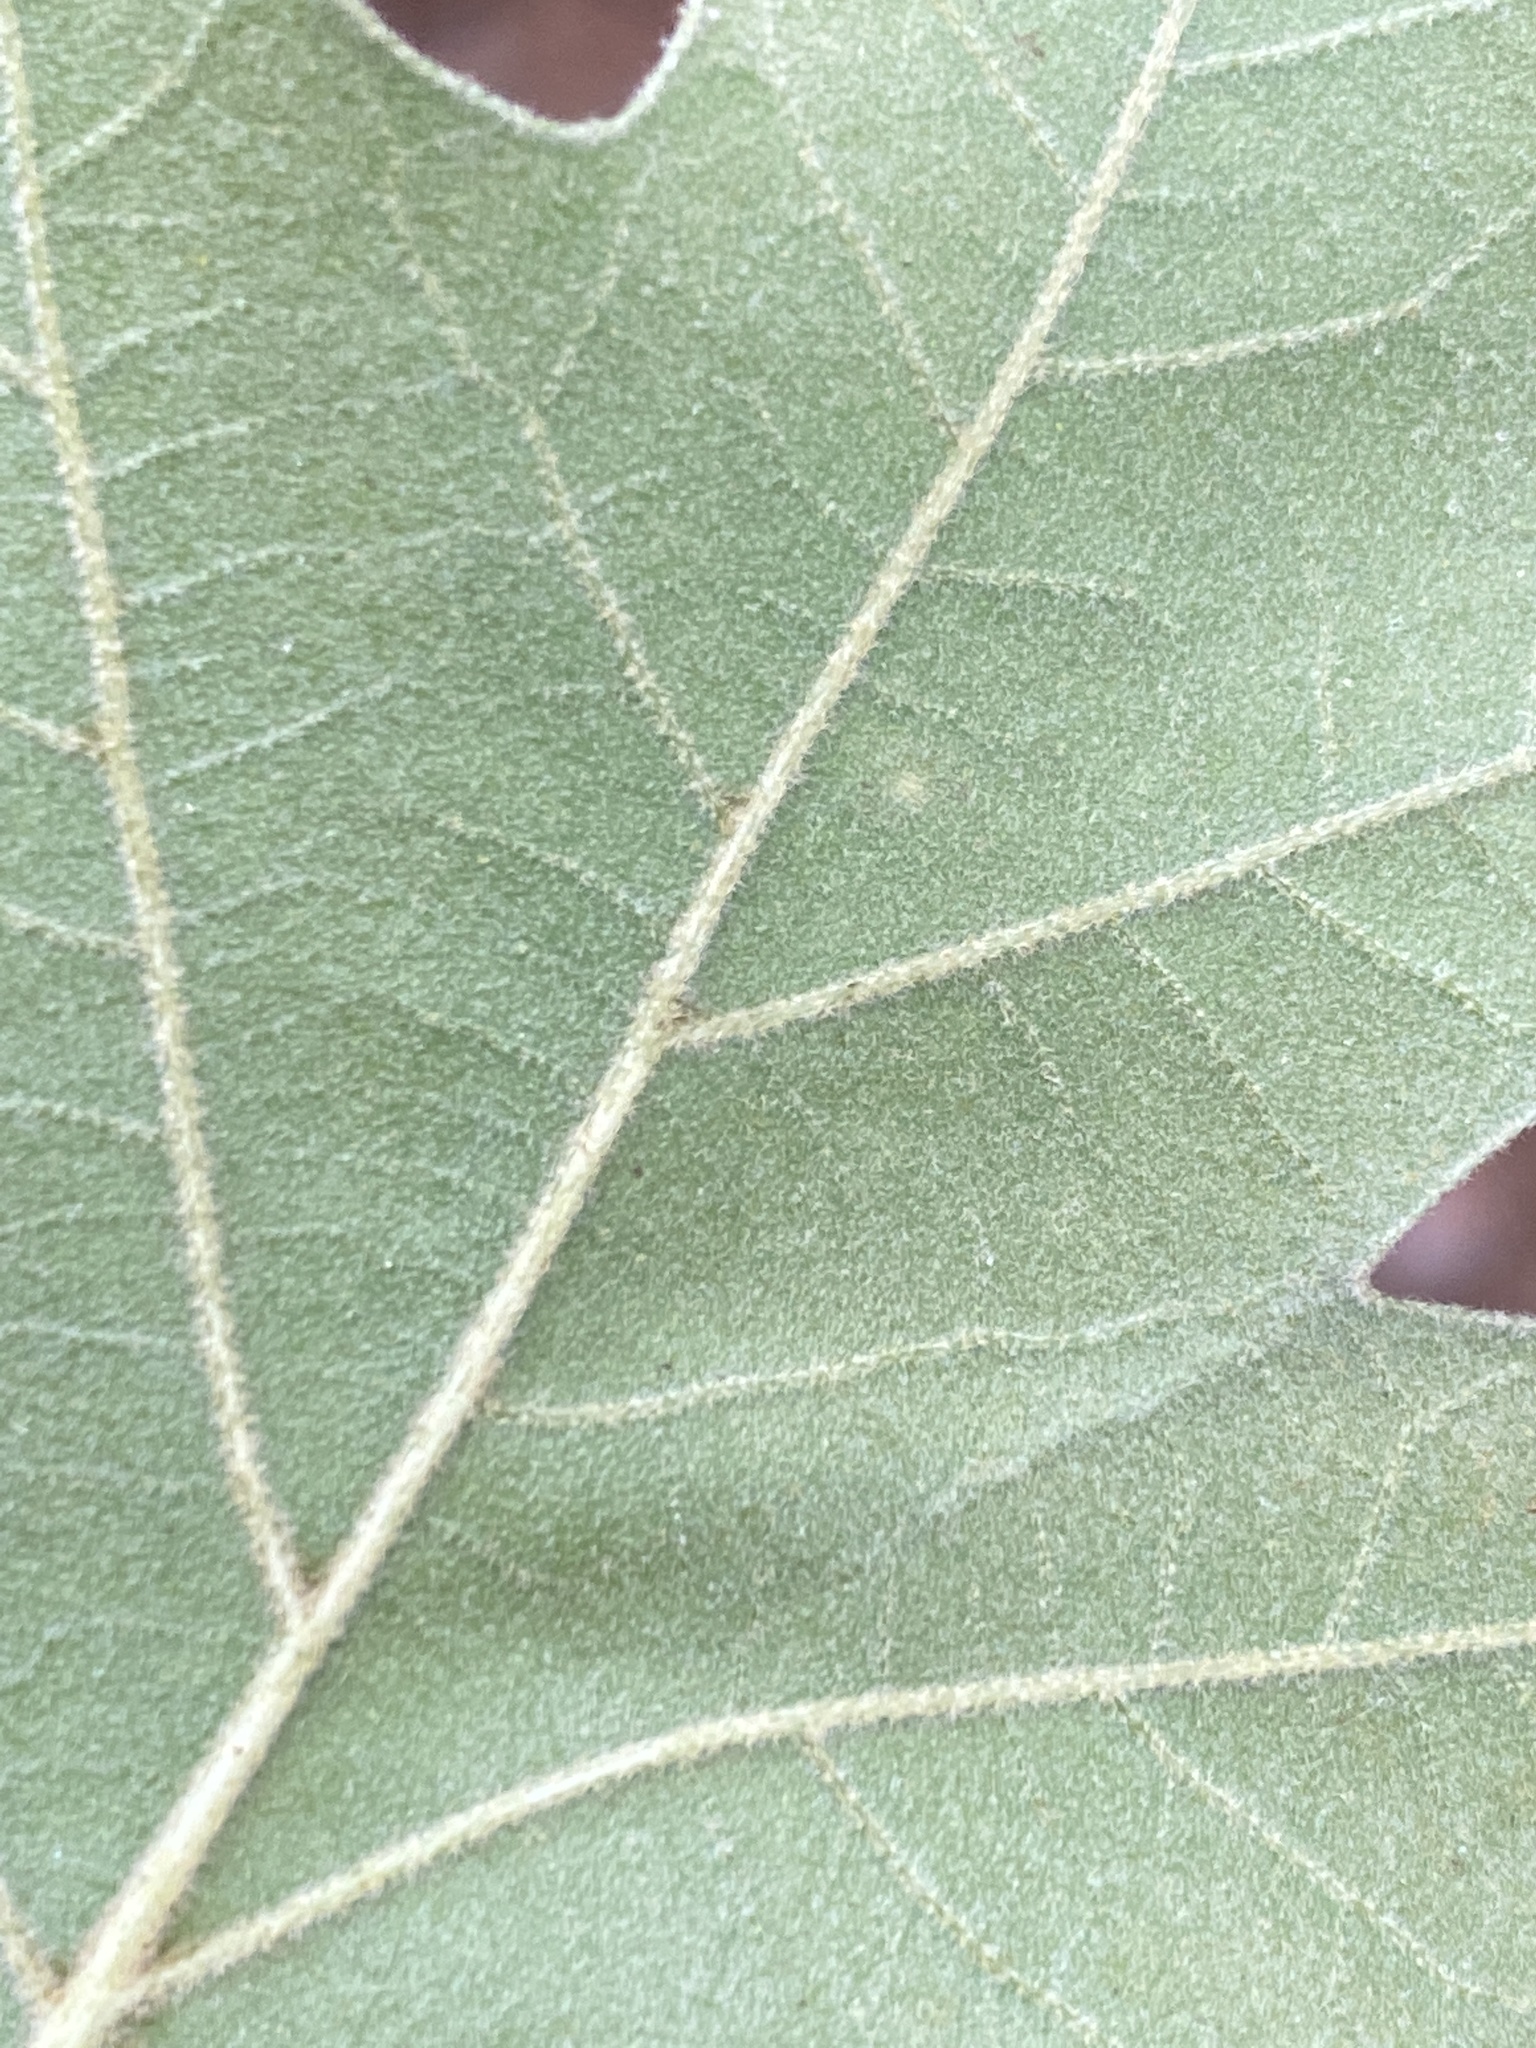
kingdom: Plantae
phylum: Tracheophyta
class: Magnoliopsida
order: Fagales
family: Fagaceae
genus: Quercus
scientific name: Quercus falcata
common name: Southern red oak
